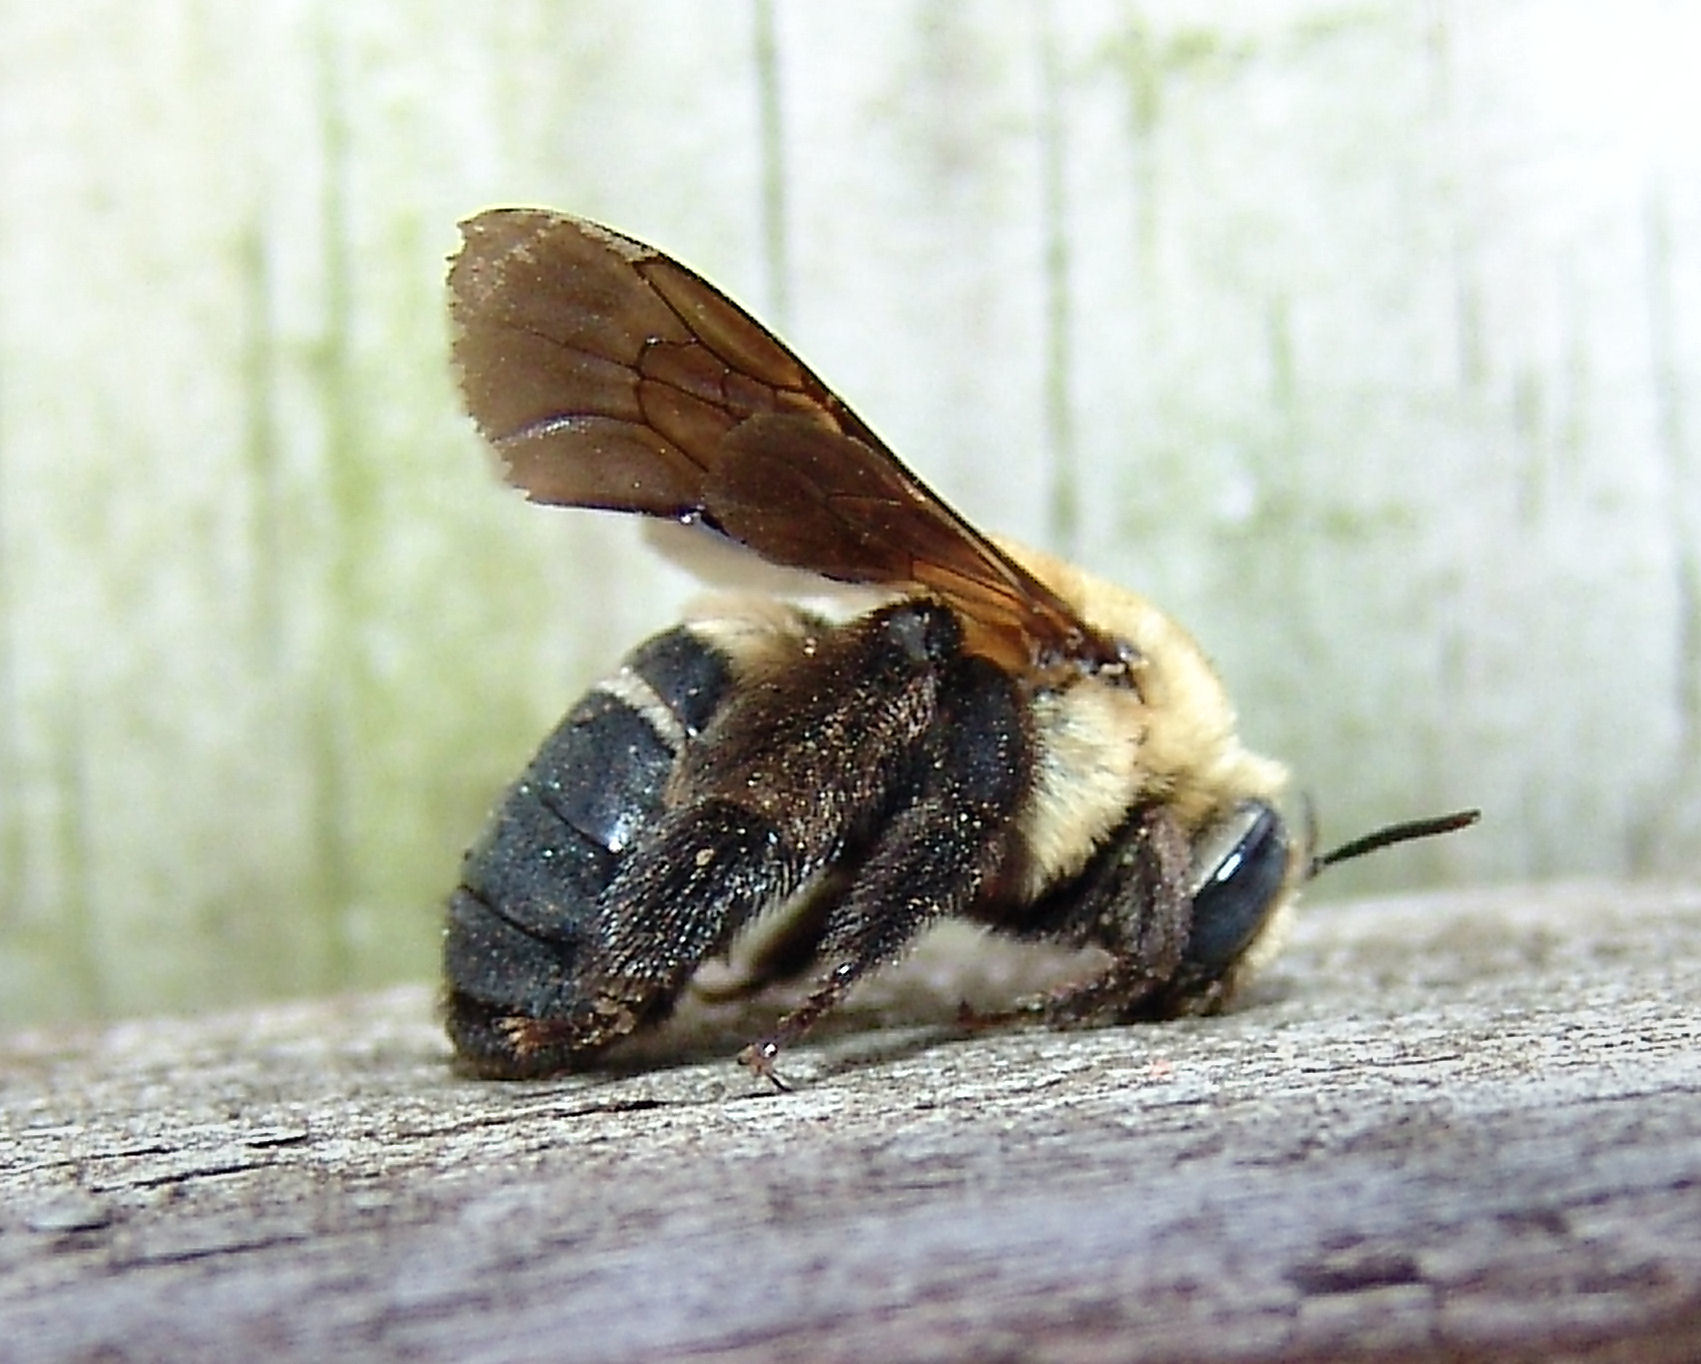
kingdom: Animalia
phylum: Arthropoda
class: Insecta
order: Hymenoptera
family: Apidae
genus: Svastra
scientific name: Svastra atripes
